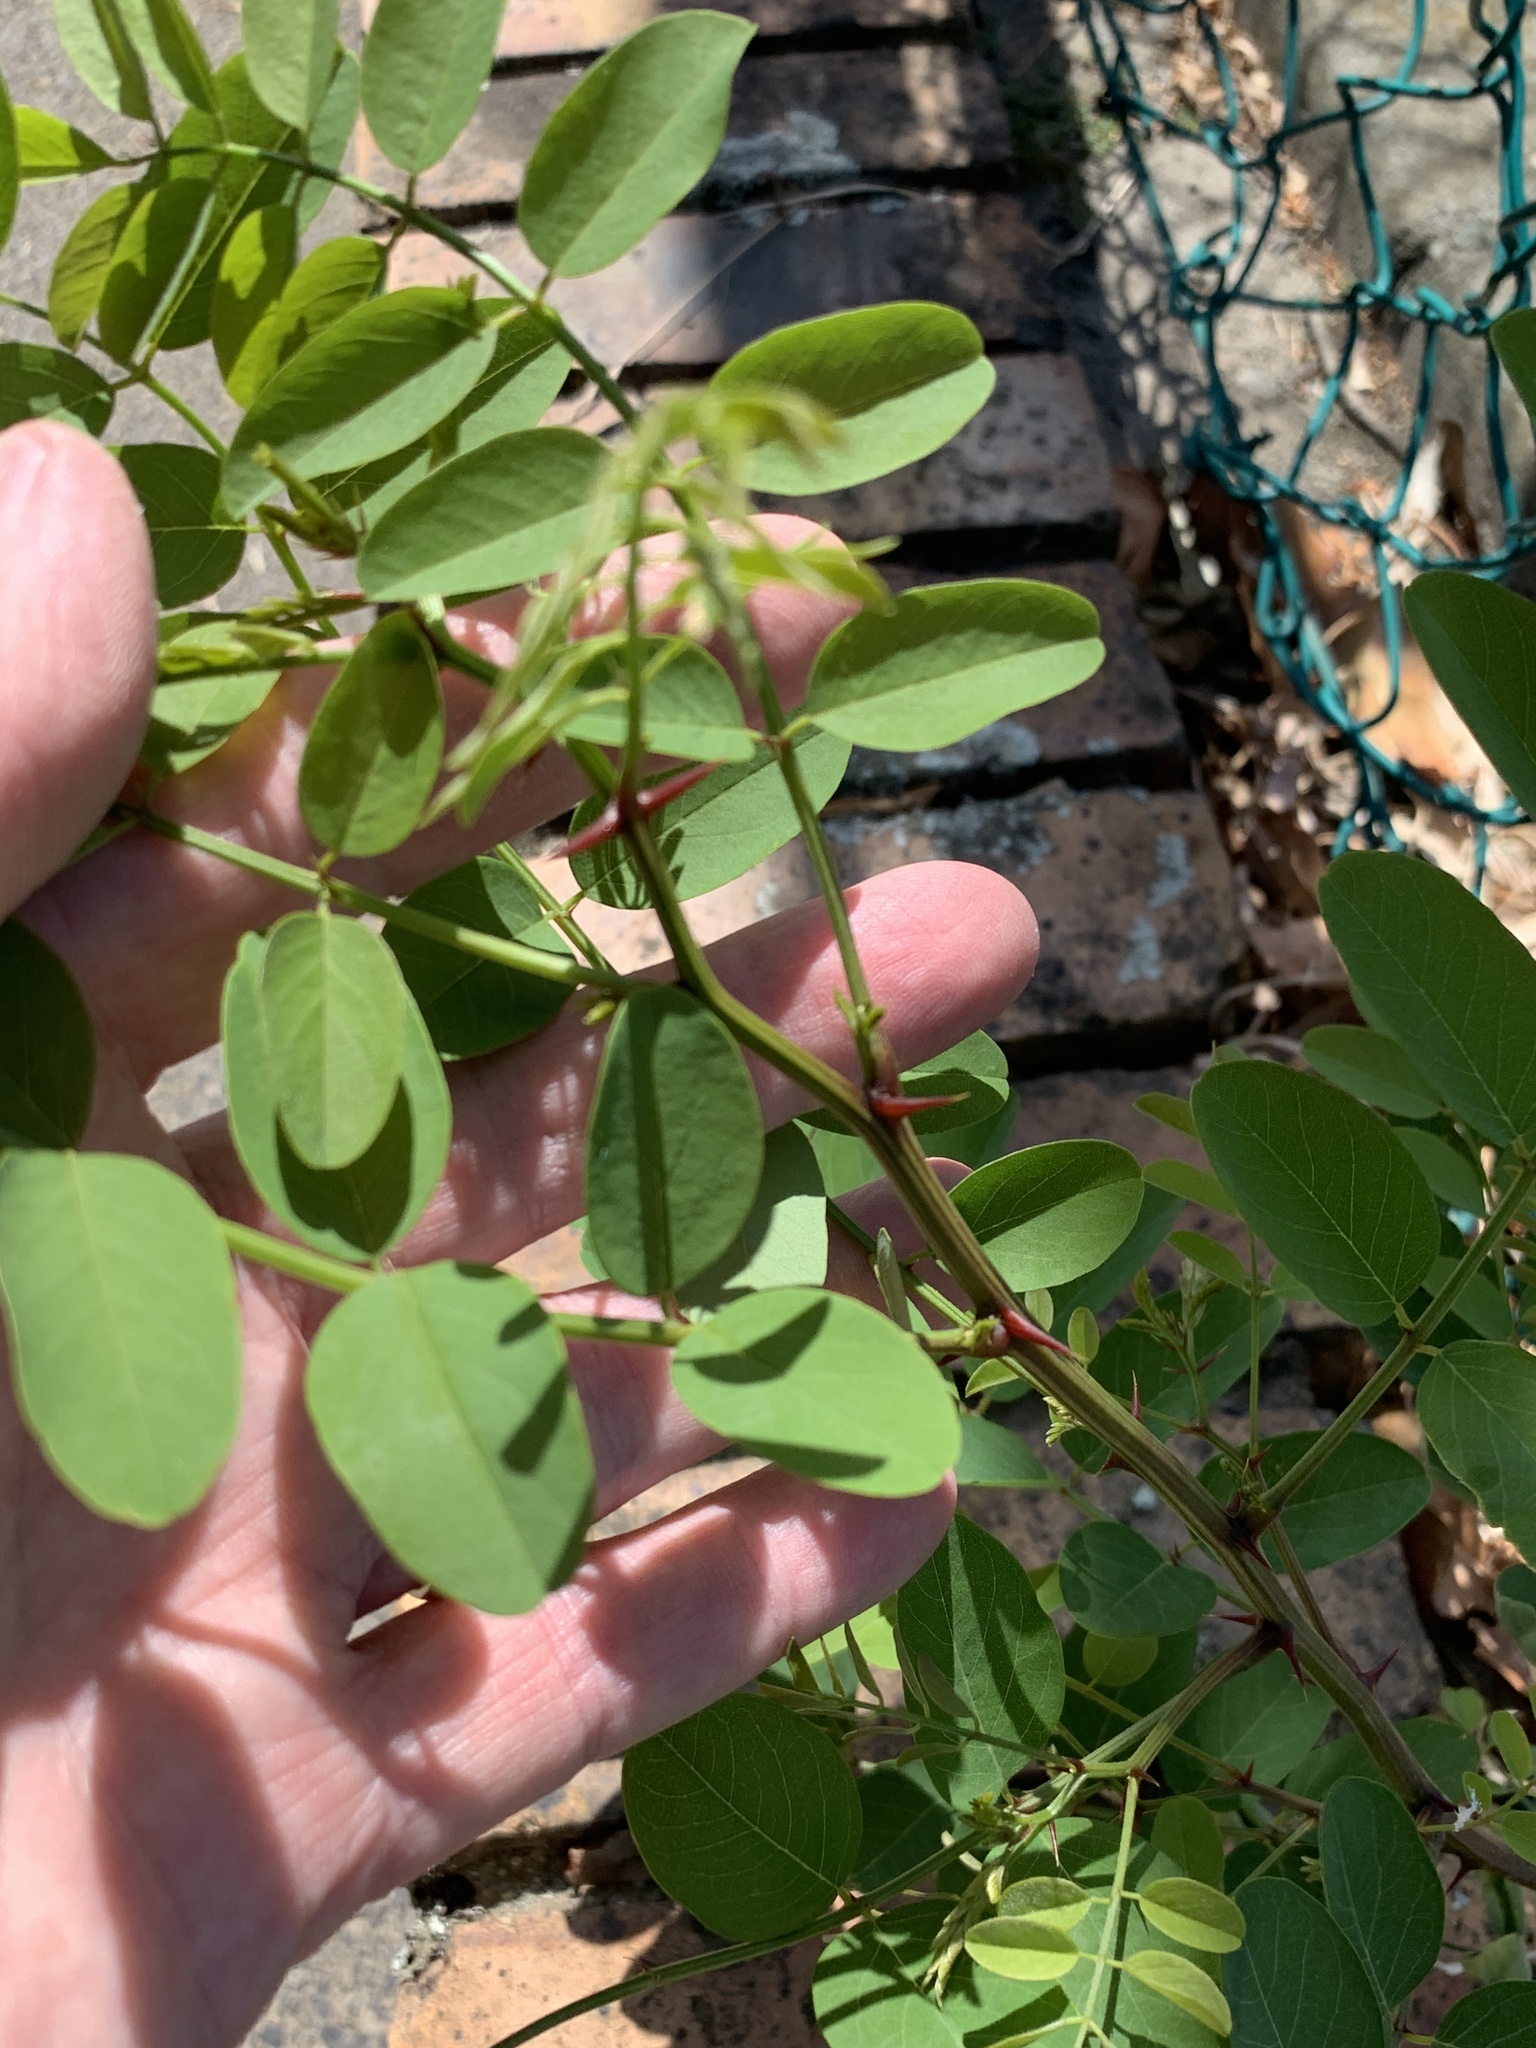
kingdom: Plantae
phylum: Tracheophyta
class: Magnoliopsida
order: Fabales
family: Fabaceae
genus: Robinia
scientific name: Robinia pseudoacacia
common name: Black locust
